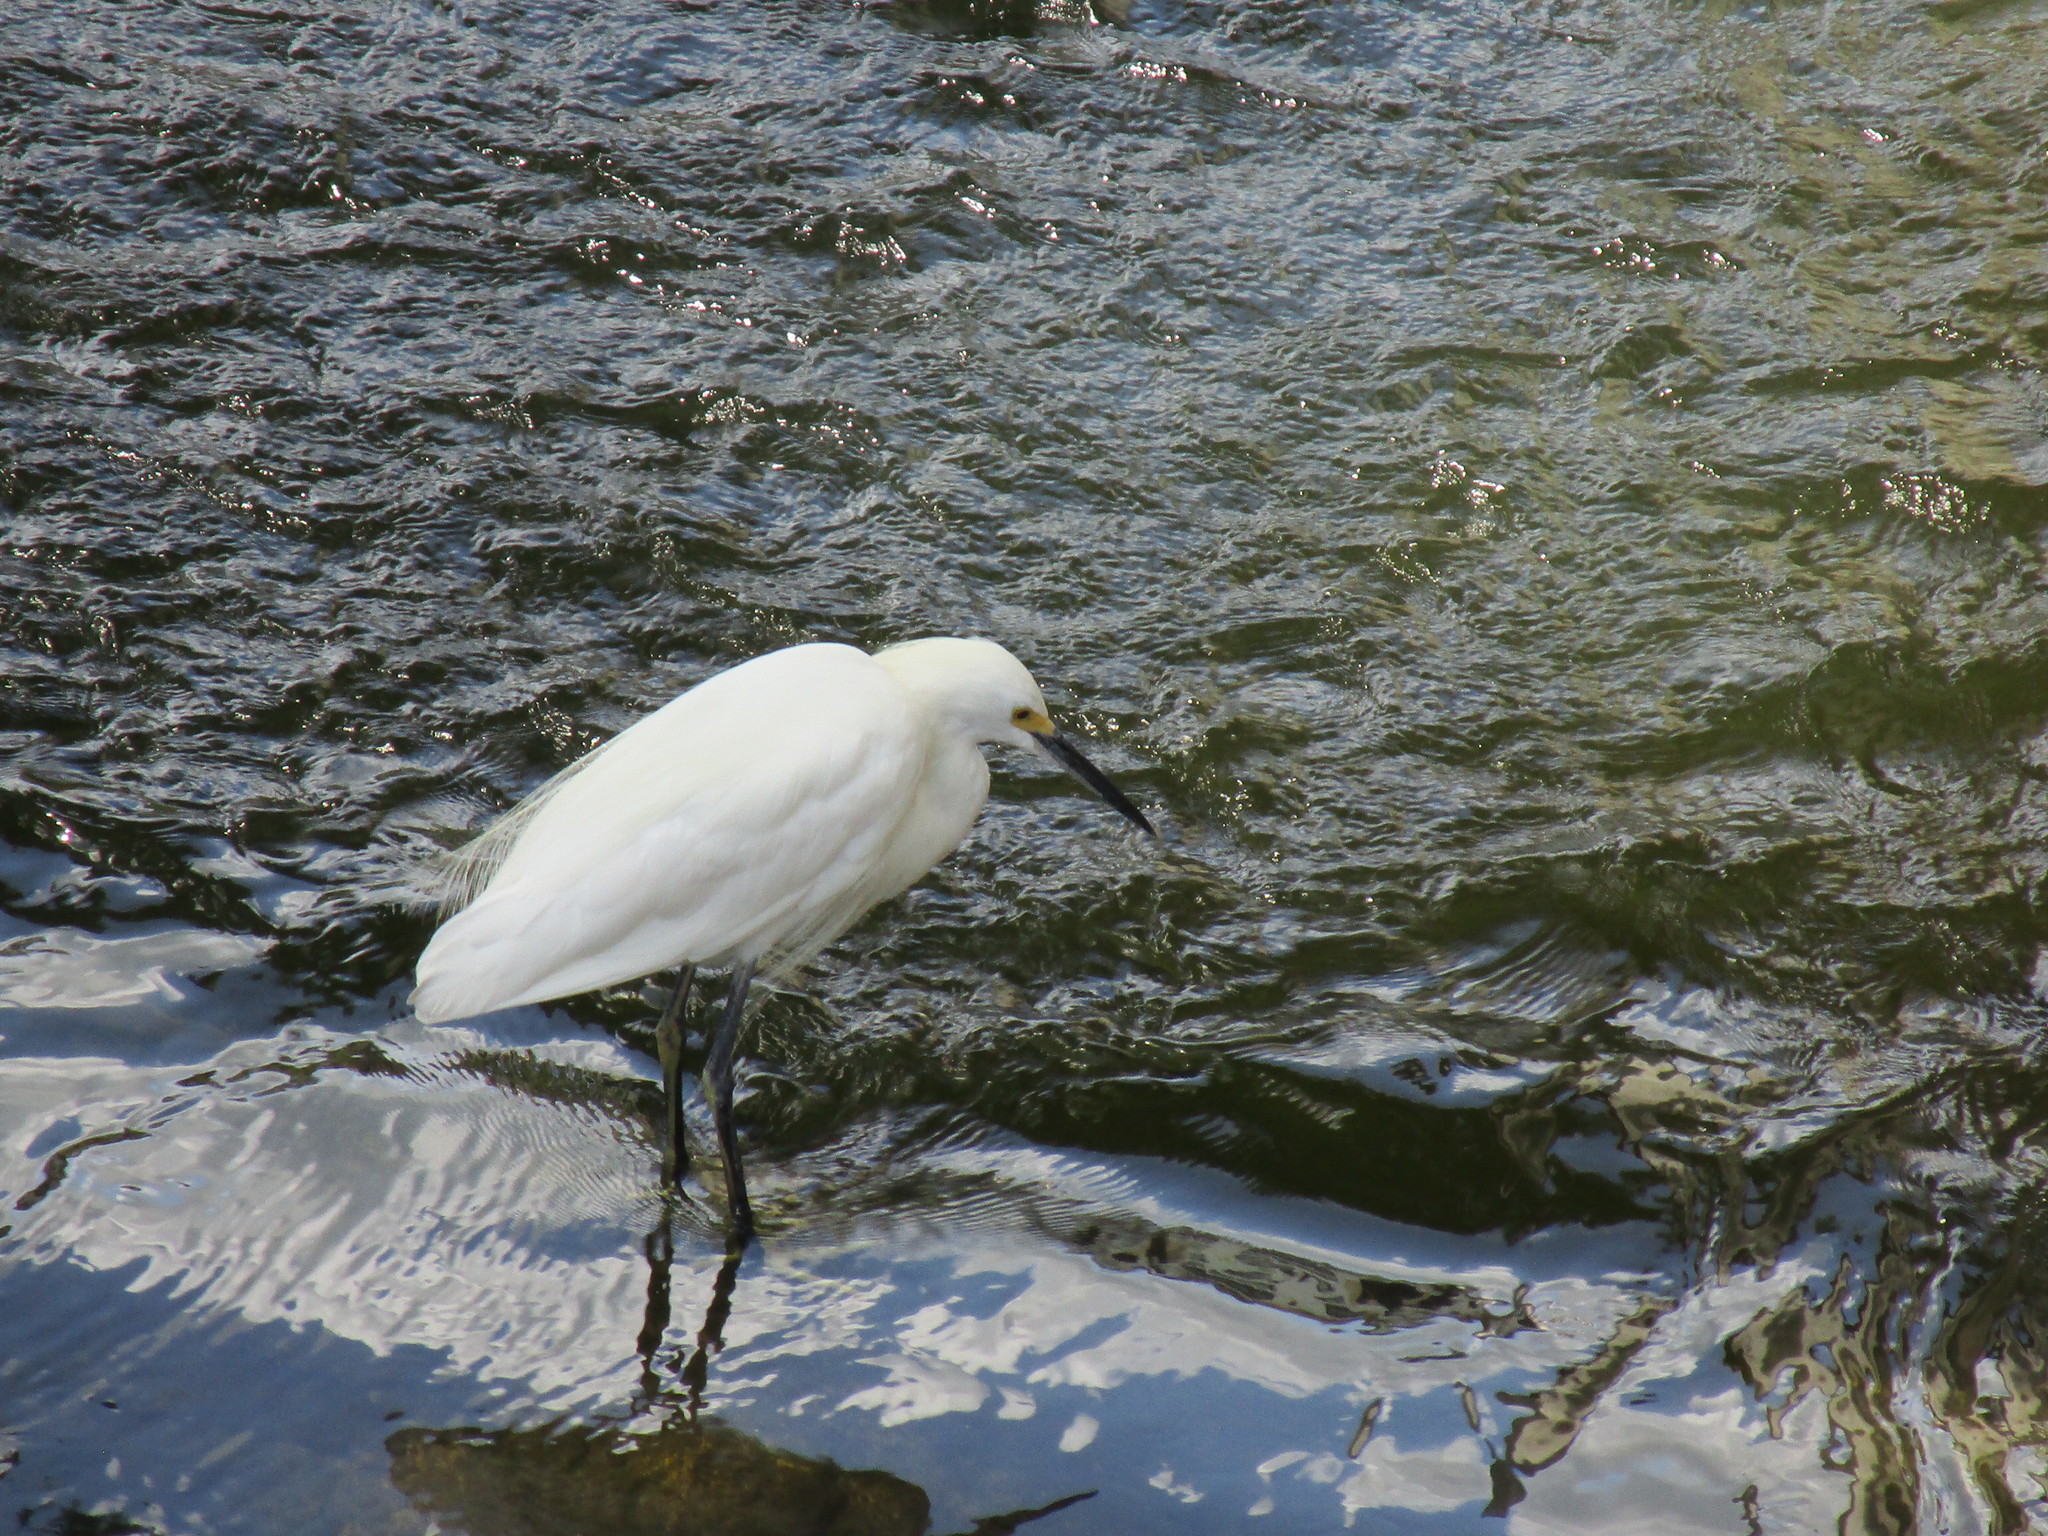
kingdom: Animalia
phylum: Chordata
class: Aves
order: Pelecaniformes
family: Ardeidae
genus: Egretta
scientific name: Egretta thula
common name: Snowy egret
